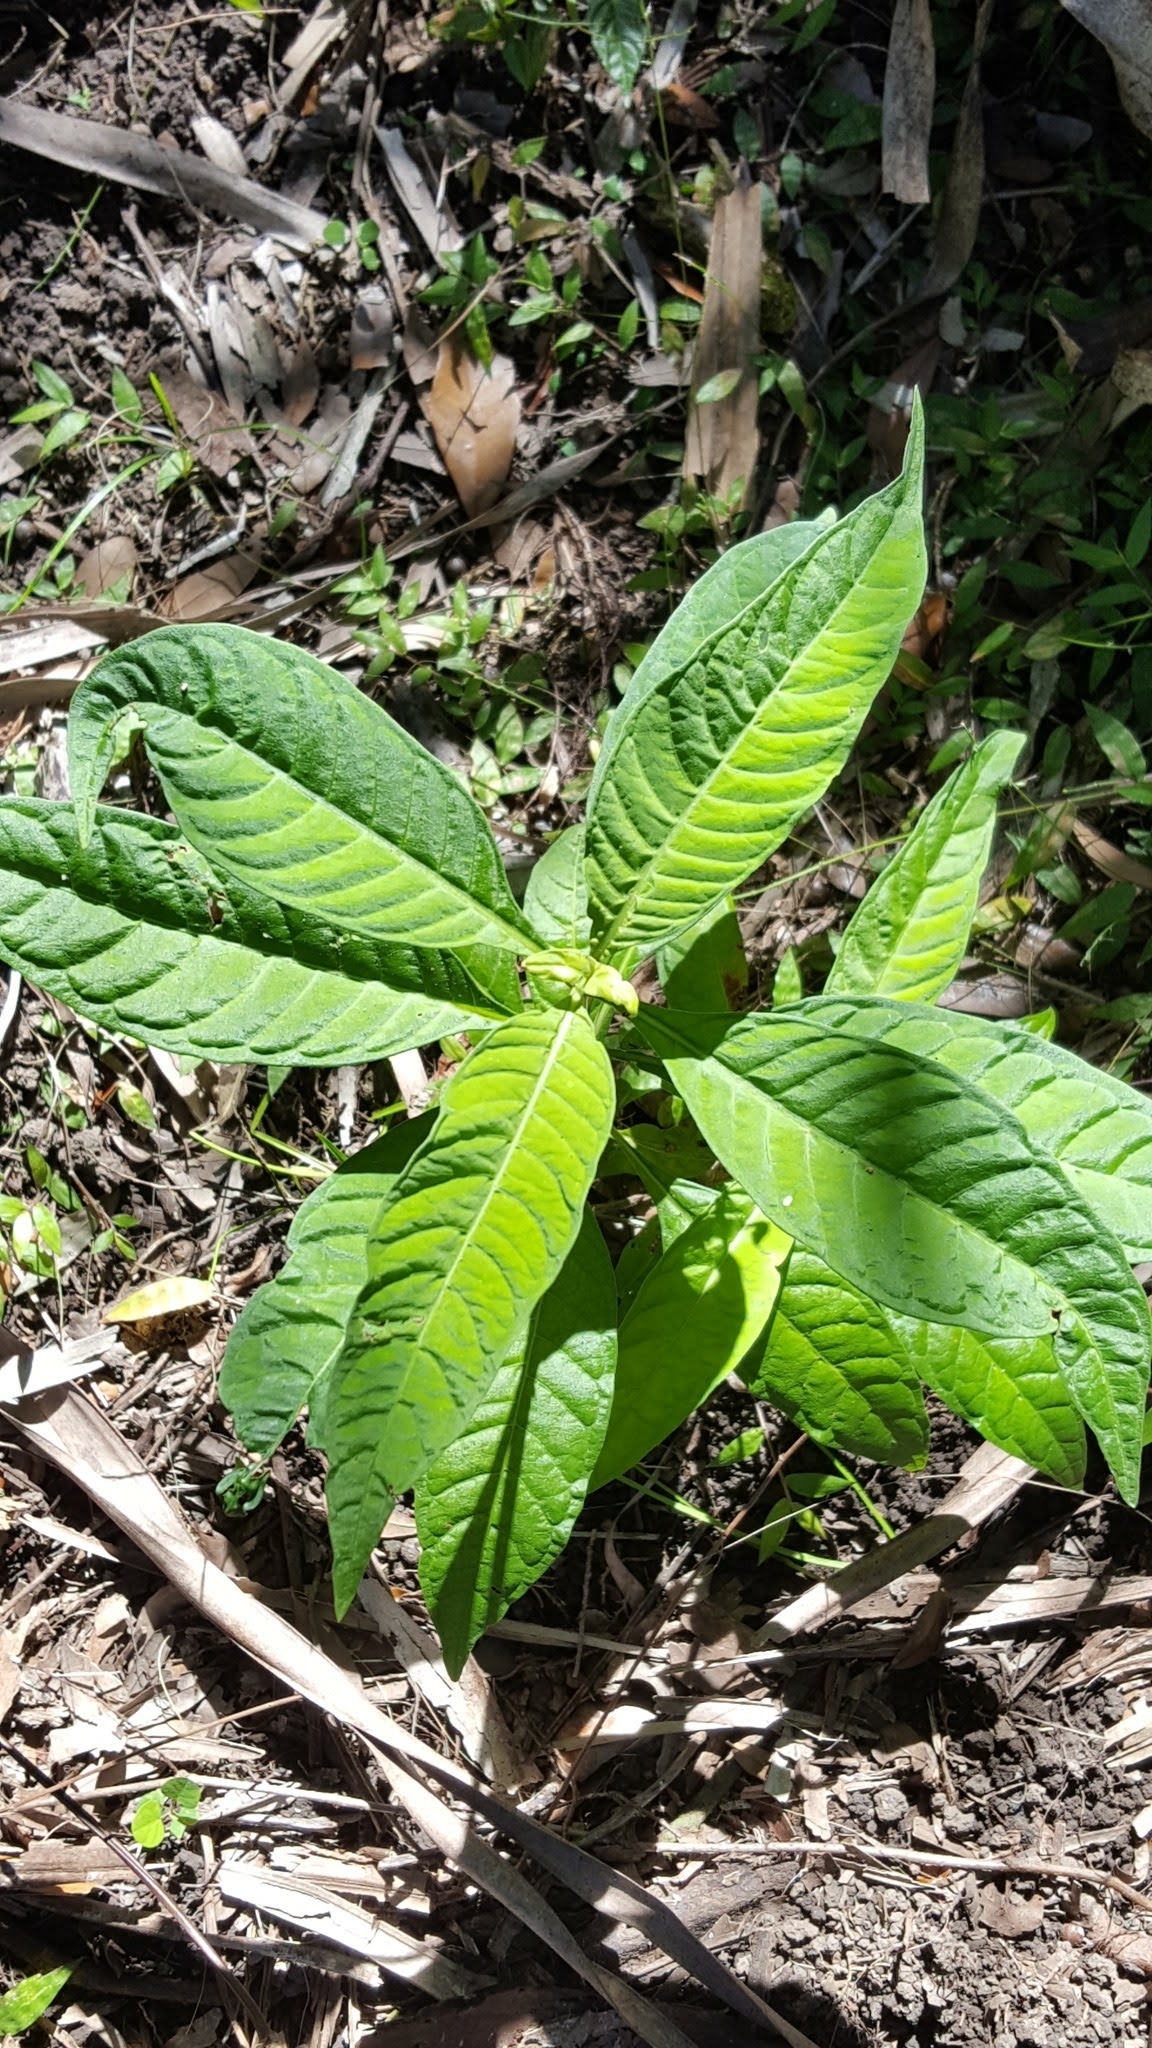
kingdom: Plantae
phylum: Tracheophyta
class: Magnoliopsida
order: Gentianales
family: Rubiaceae
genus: Psychotria
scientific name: Psychotria tenuifolia
